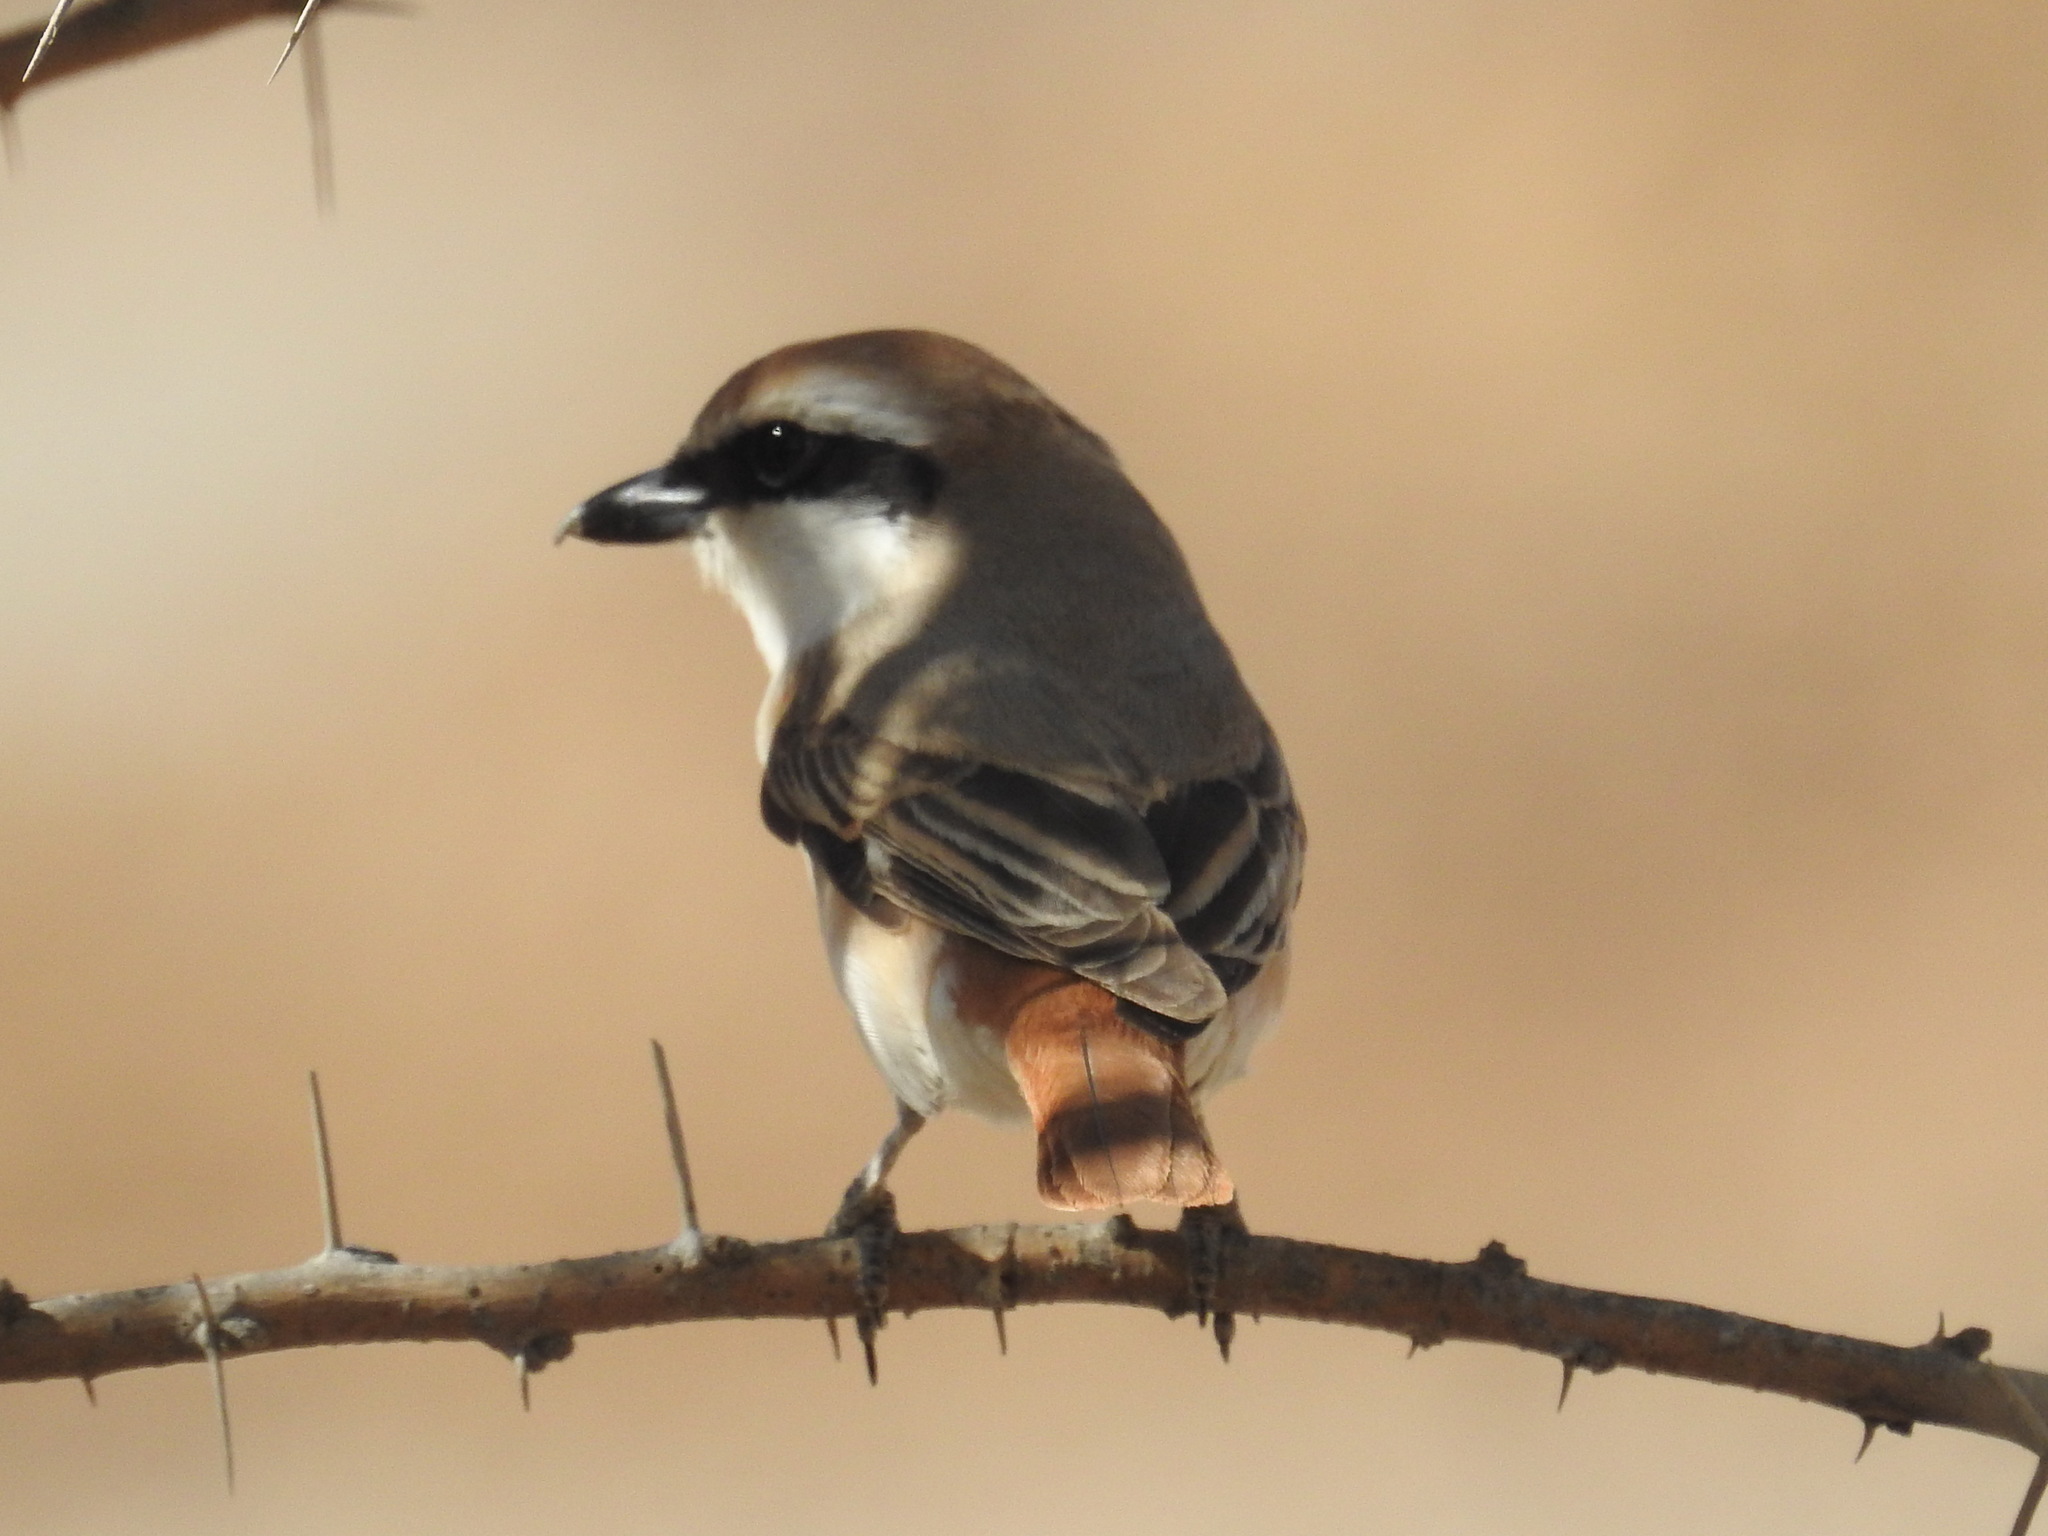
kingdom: Animalia
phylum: Chordata
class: Aves
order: Passeriformes
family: Laniidae
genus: Lanius
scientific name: Lanius phoenicuroides
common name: Red-tailed shrike
